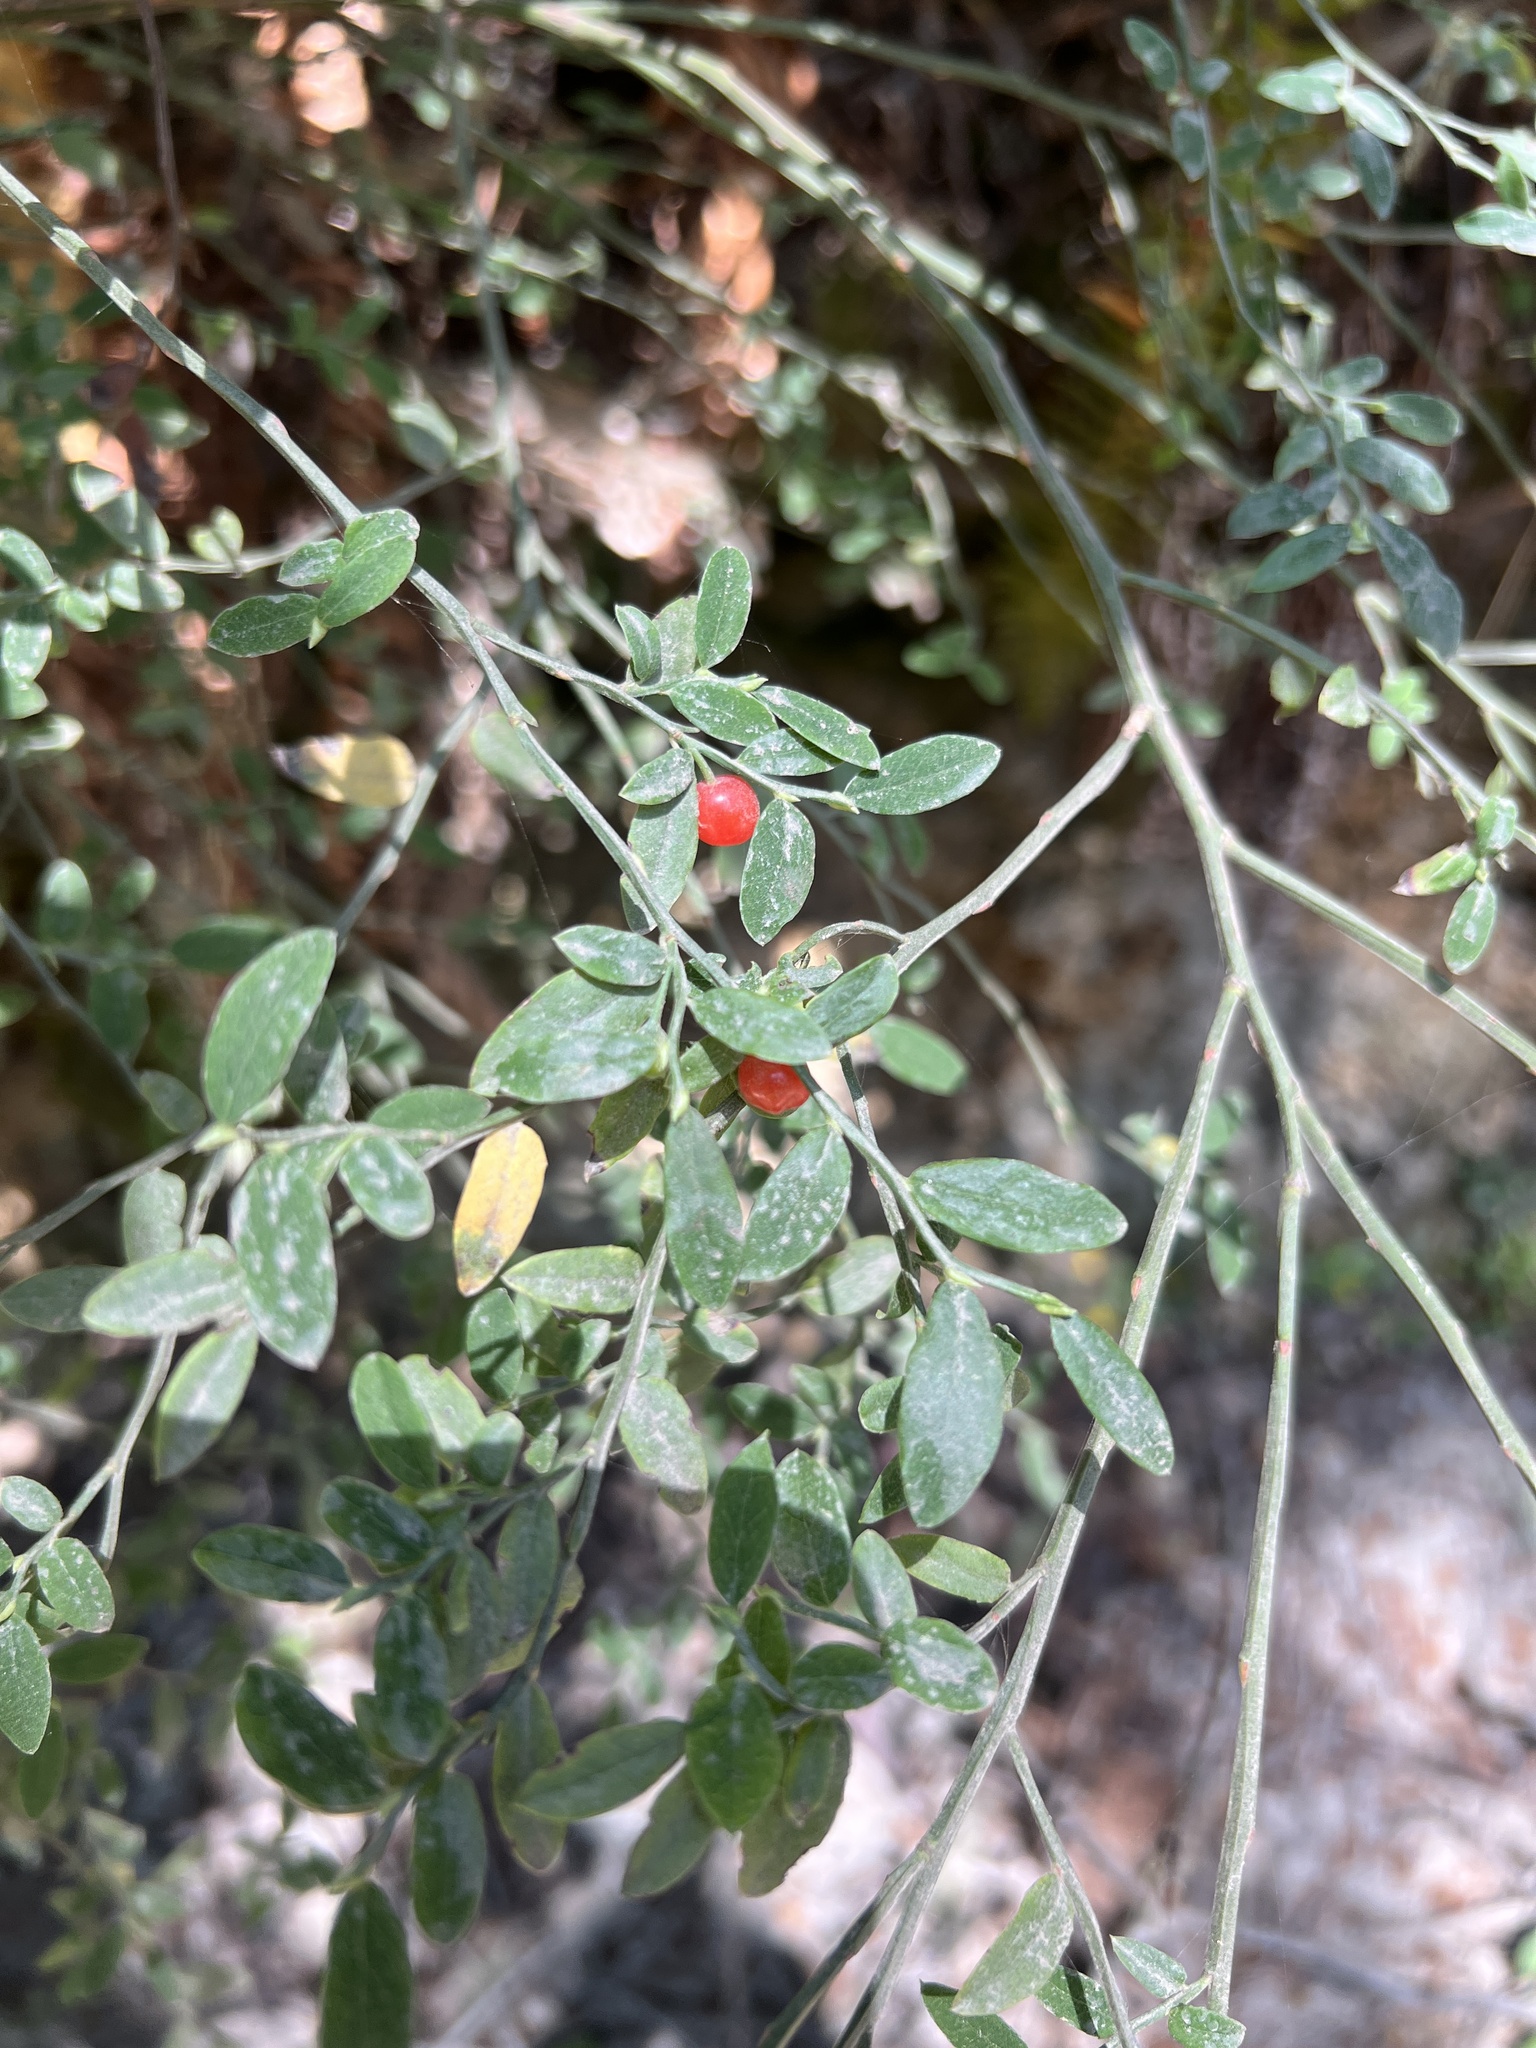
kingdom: Plantae
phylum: Tracheophyta
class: Magnoliopsida
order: Ericales
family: Ericaceae
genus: Vaccinium
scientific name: Vaccinium parvifolium
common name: Red-huckleberry
